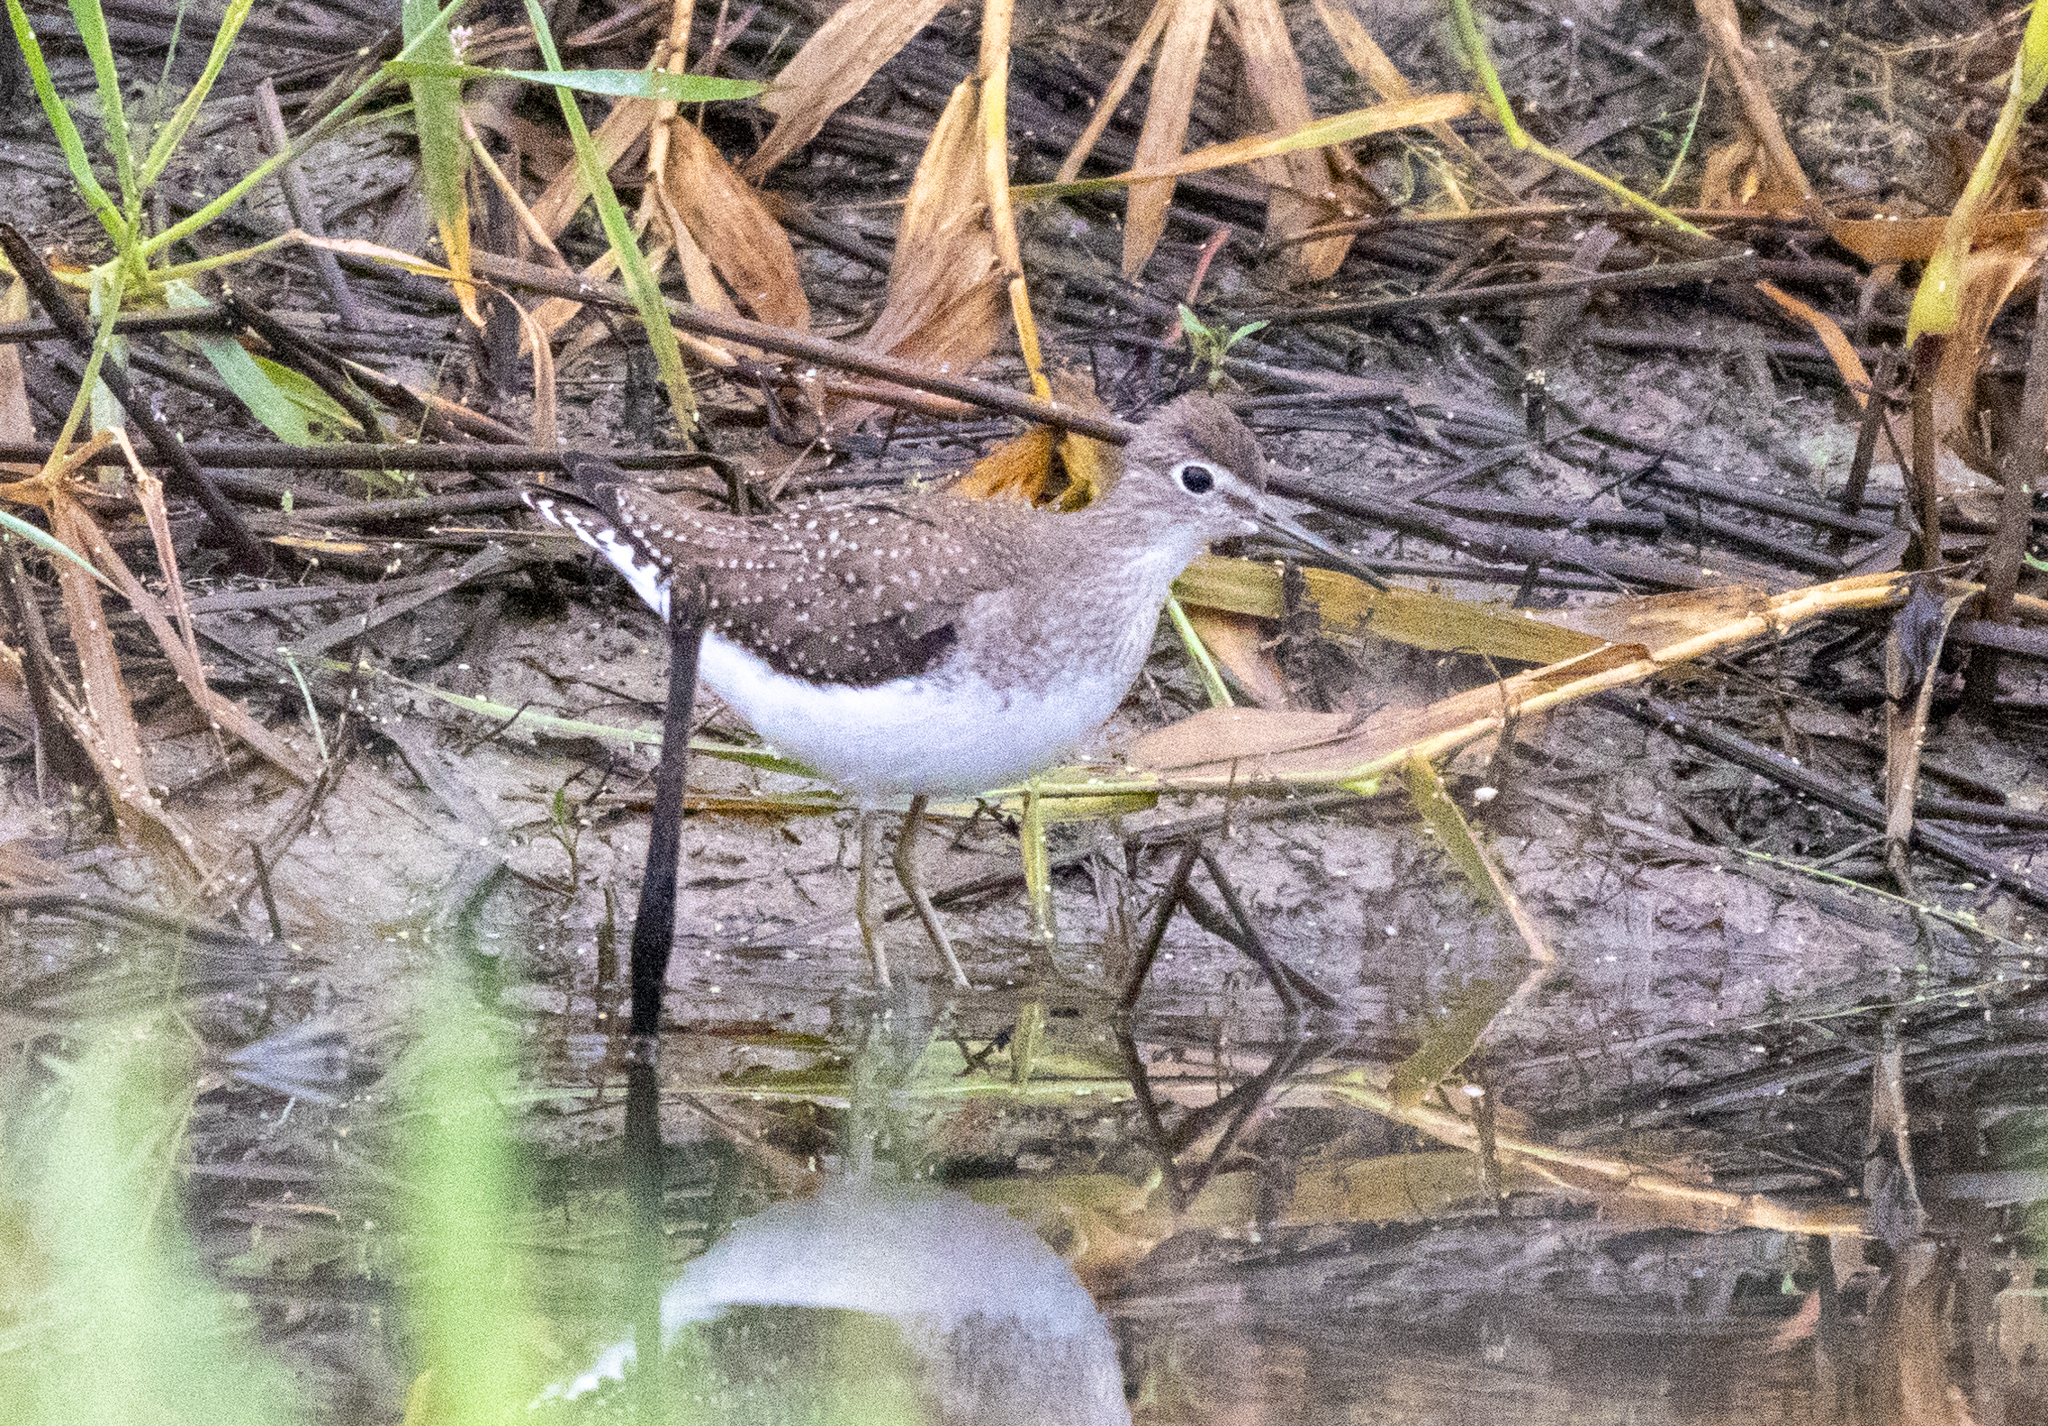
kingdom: Animalia
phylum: Chordata
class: Aves
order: Charadriiformes
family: Scolopacidae
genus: Tringa
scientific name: Tringa solitaria
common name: Solitary sandpiper
